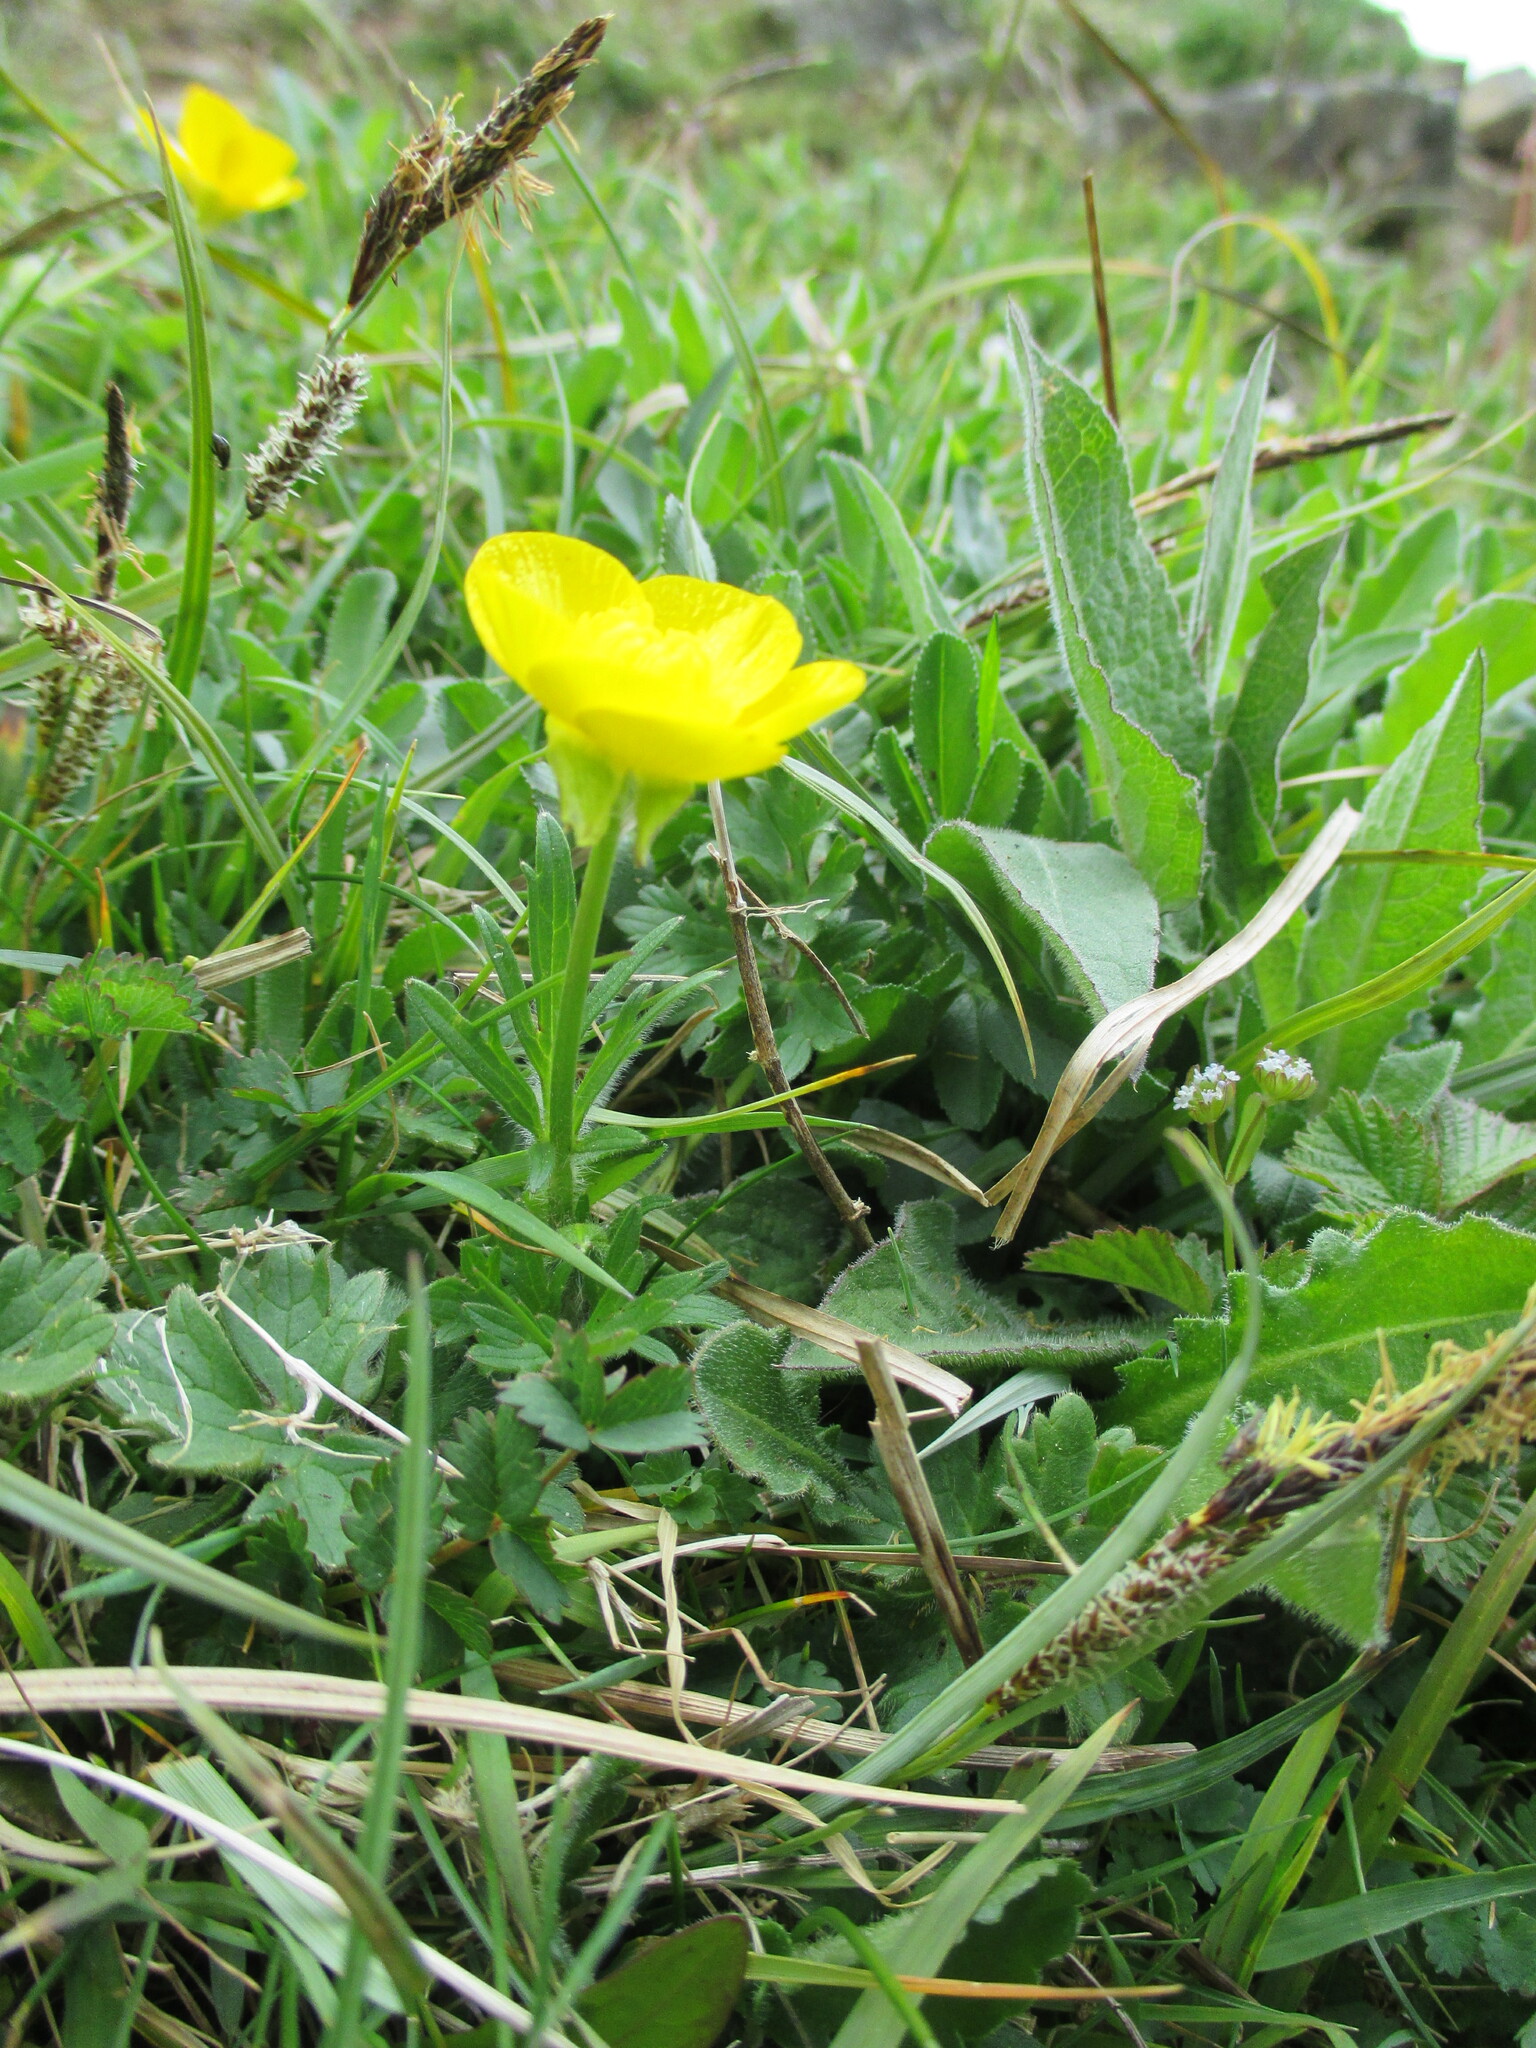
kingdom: Plantae
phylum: Tracheophyta
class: Magnoliopsida
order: Ranunculales
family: Ranunculaceae
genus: Ranunculus
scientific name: Ranunculus bulbosus
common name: Bulbous buttercup
